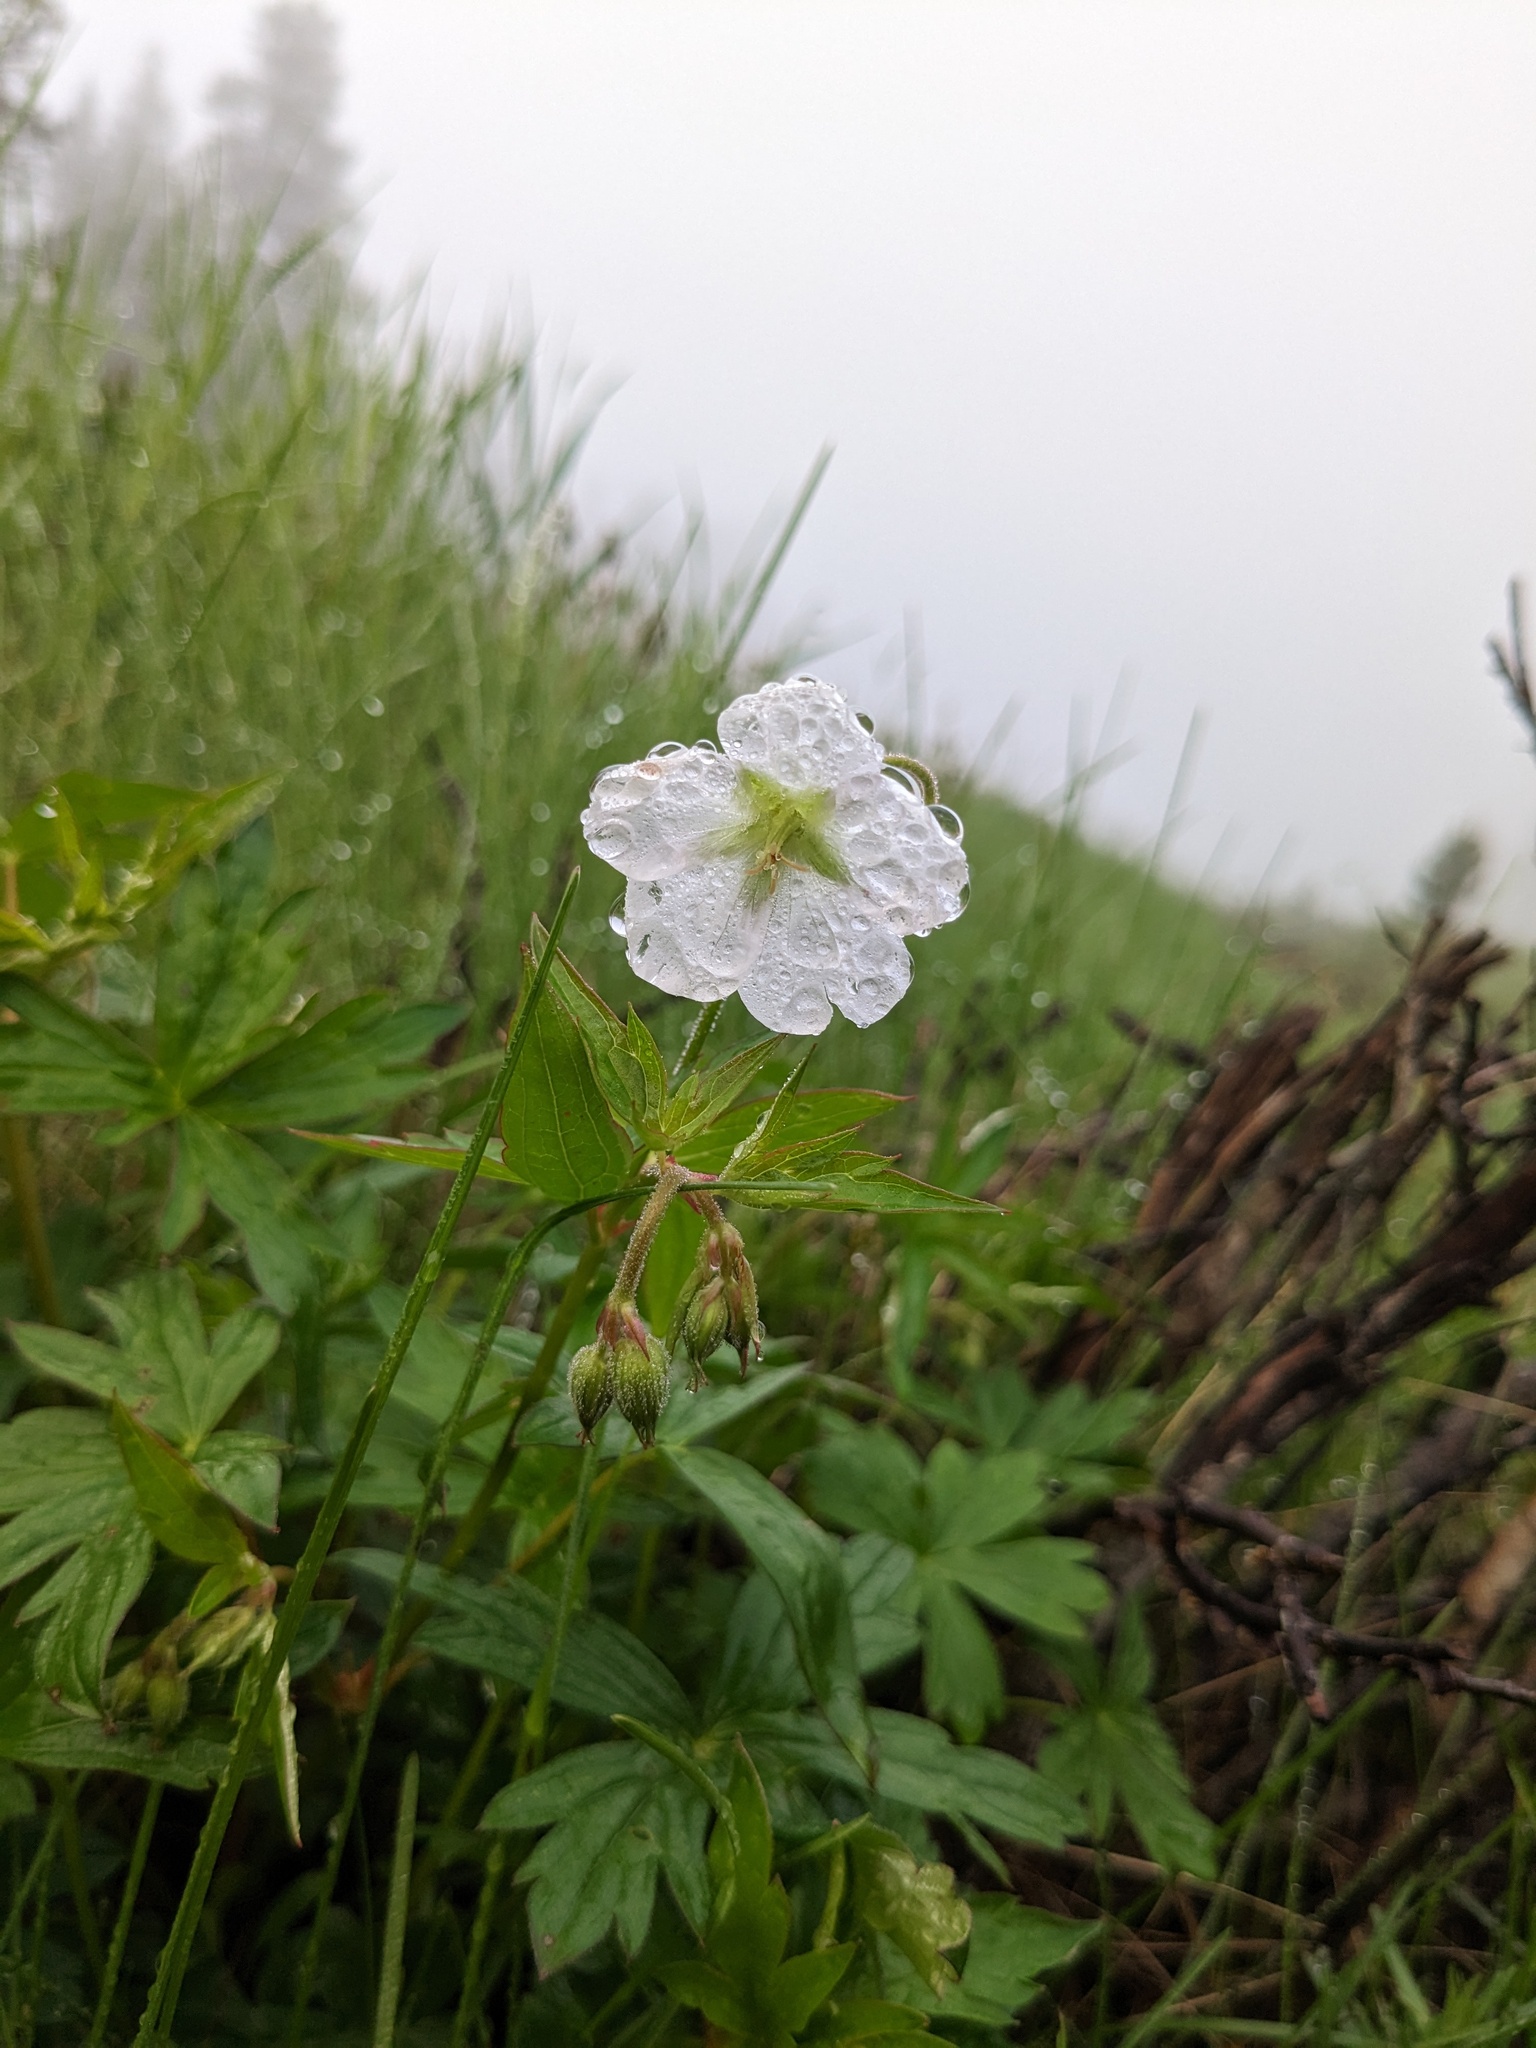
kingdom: Plantae
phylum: Tracheophyta
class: Magnoliopsida
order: Geraniales
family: Geraniaceae
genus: Geranium
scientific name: Geranium richardsonii
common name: Richardson's crane's-bill
